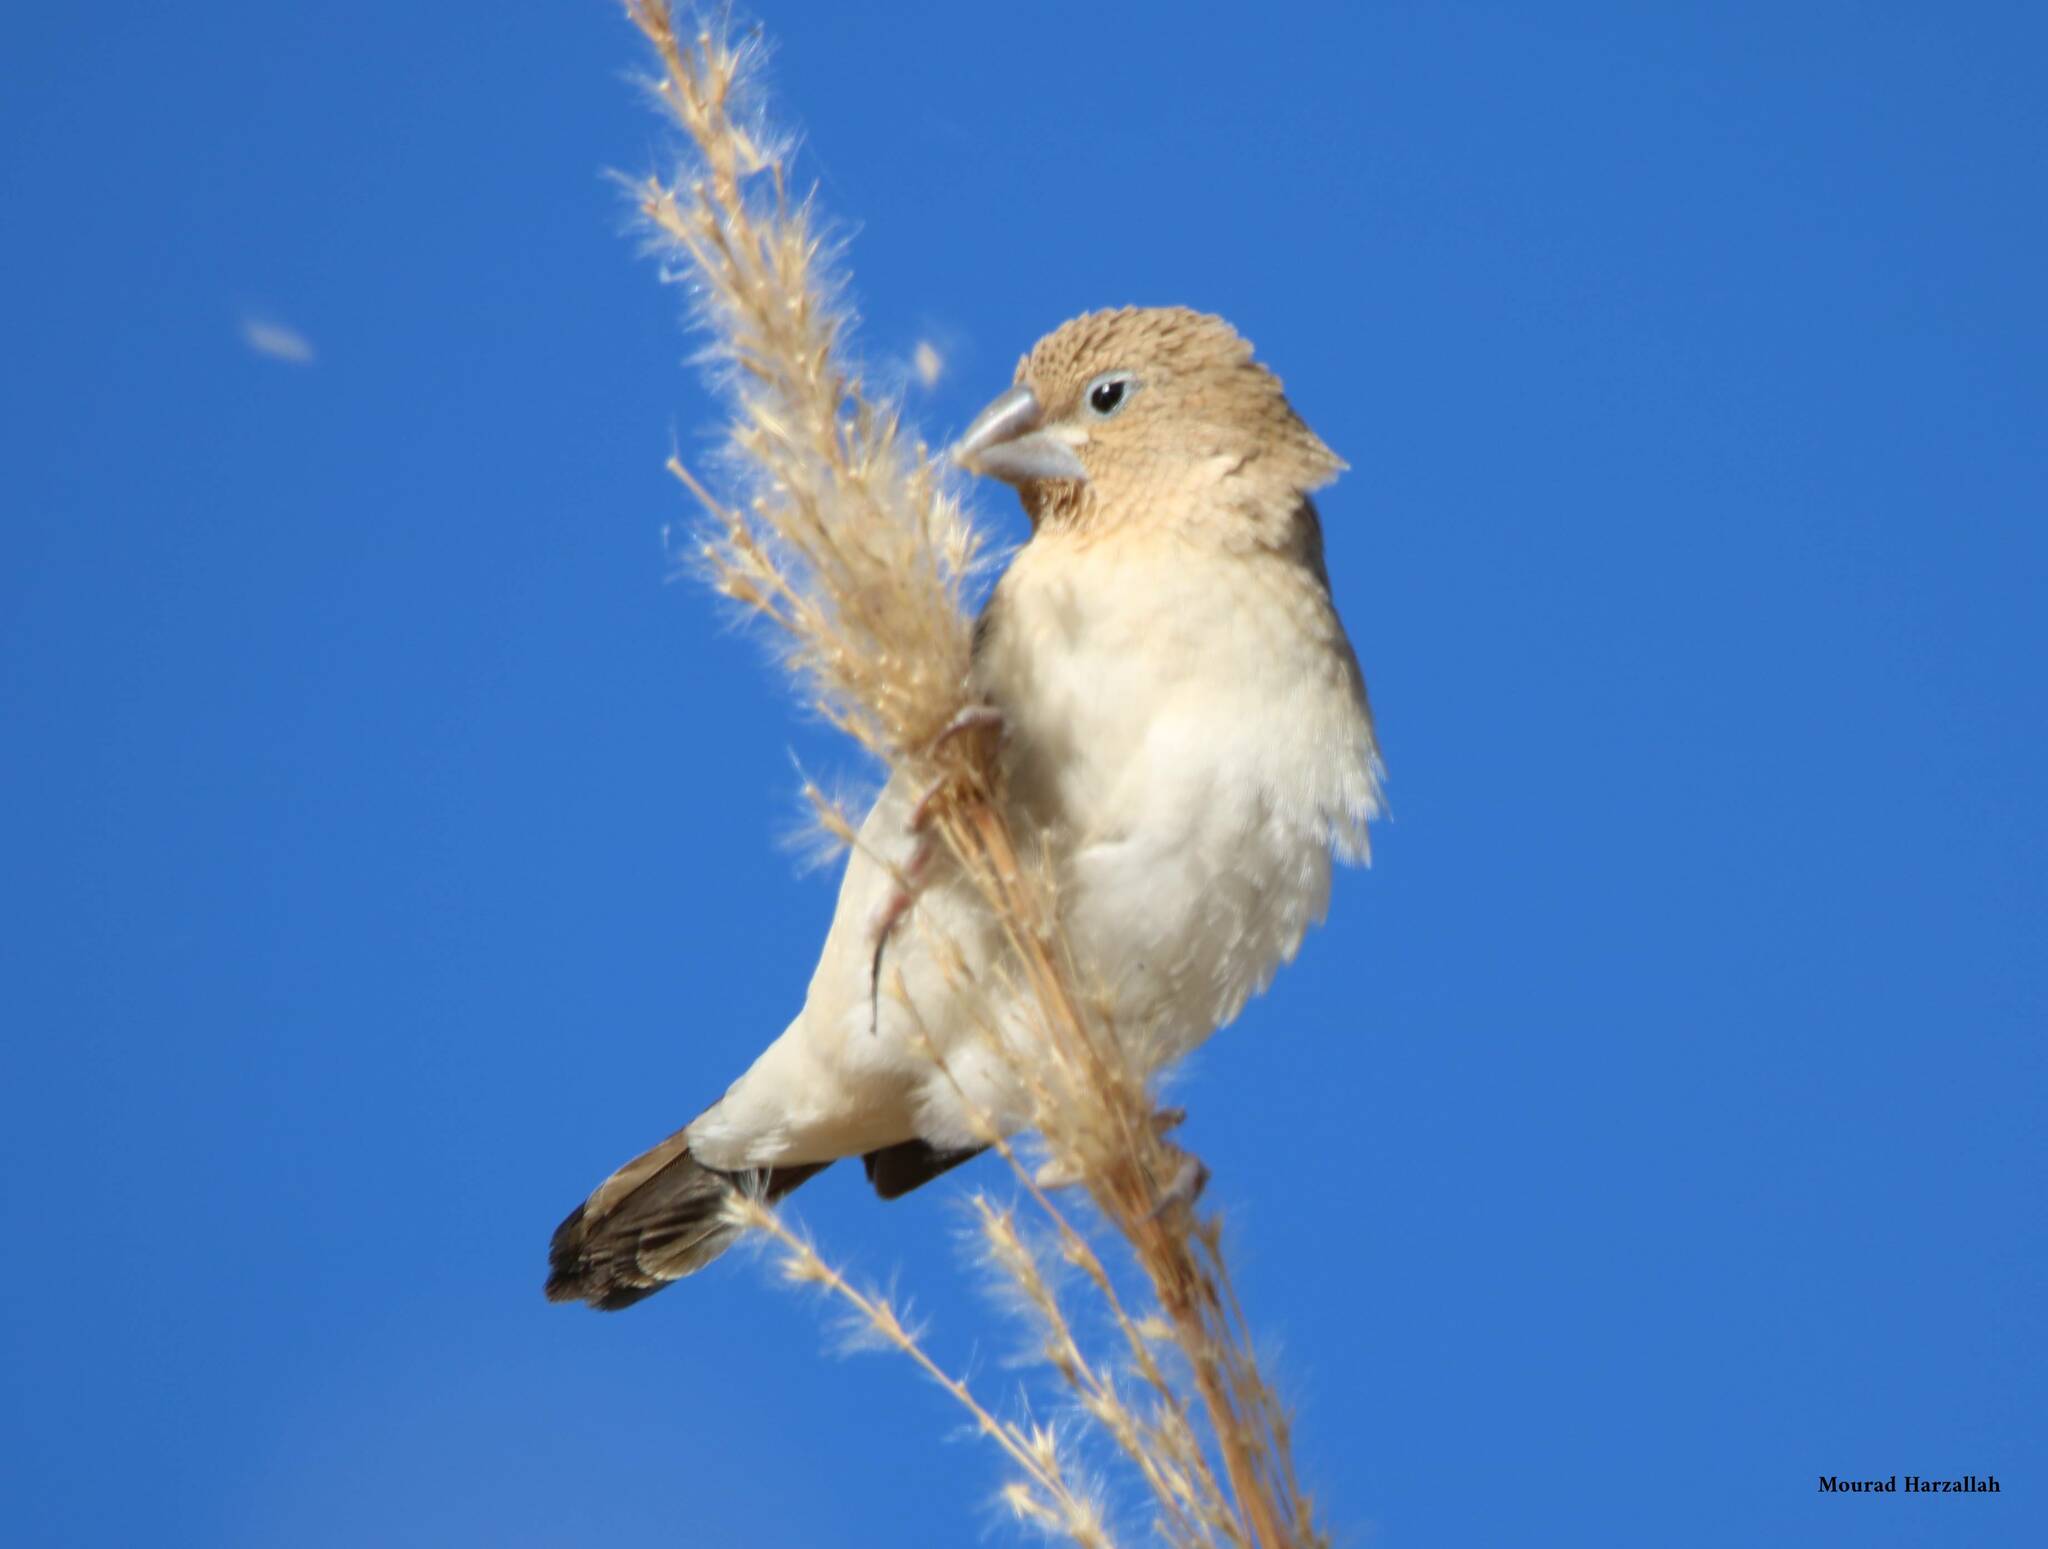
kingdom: Animalia
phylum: Chordata
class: Aves
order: Passeriformes
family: Estrildidae
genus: Euodice
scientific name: Euodice cantans
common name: African silverbill
